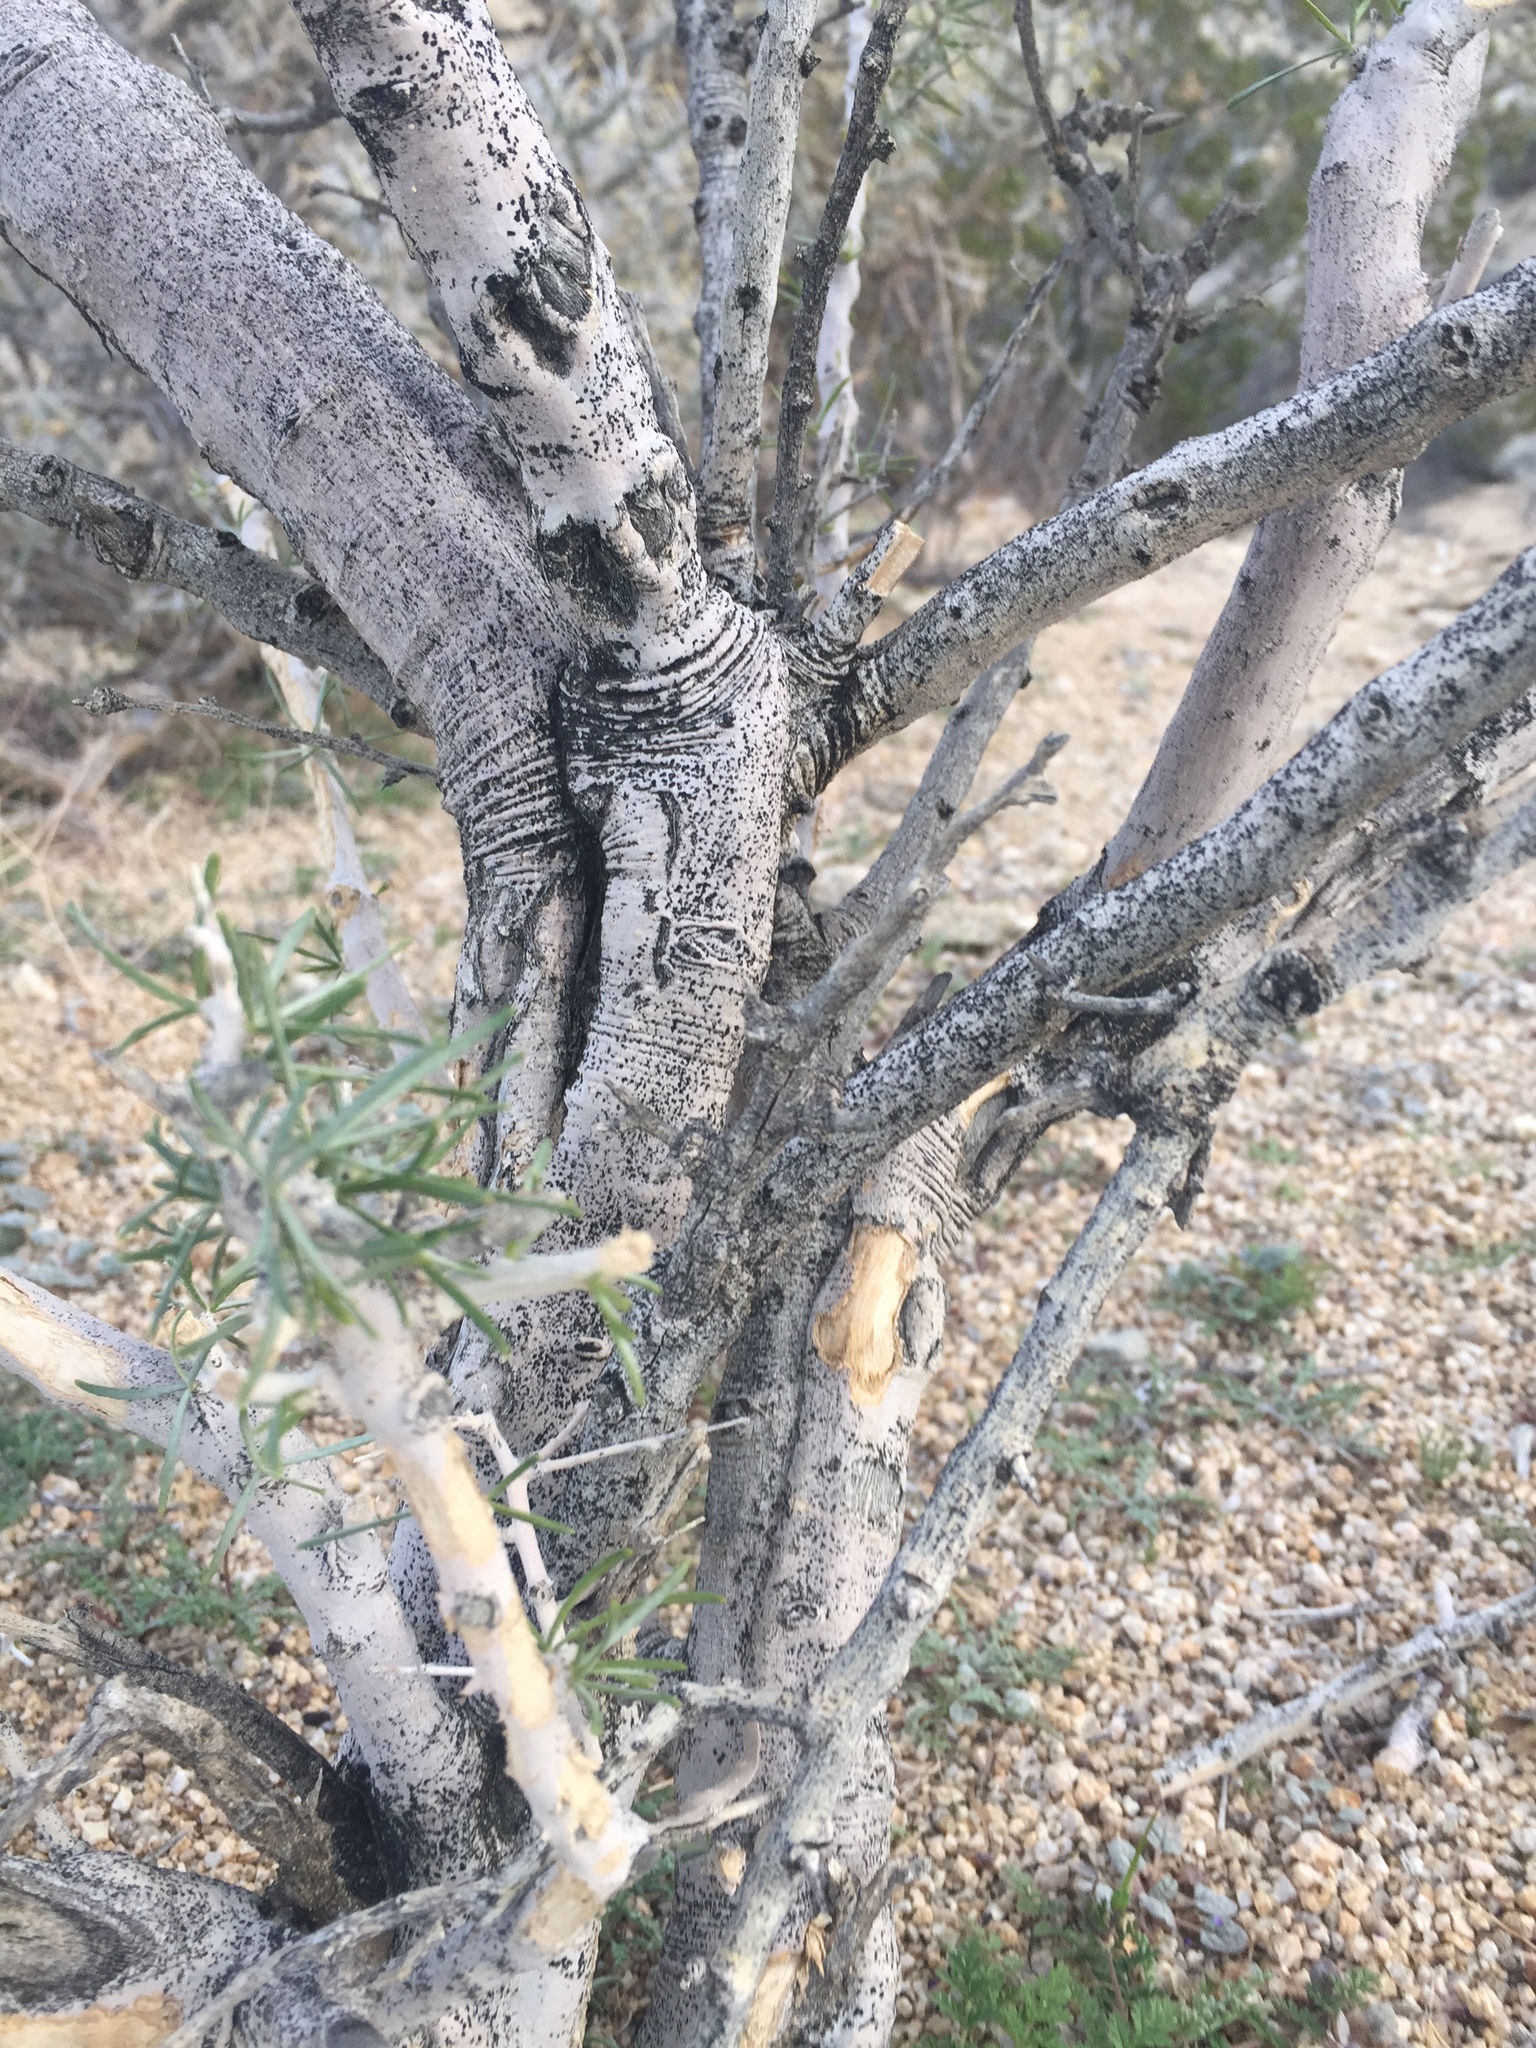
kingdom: Plantae
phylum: Tracheophyta
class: Magnoliopsida
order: Fabales
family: Fabaceae
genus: Psorothamnus
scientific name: Psorothamnus schottii
